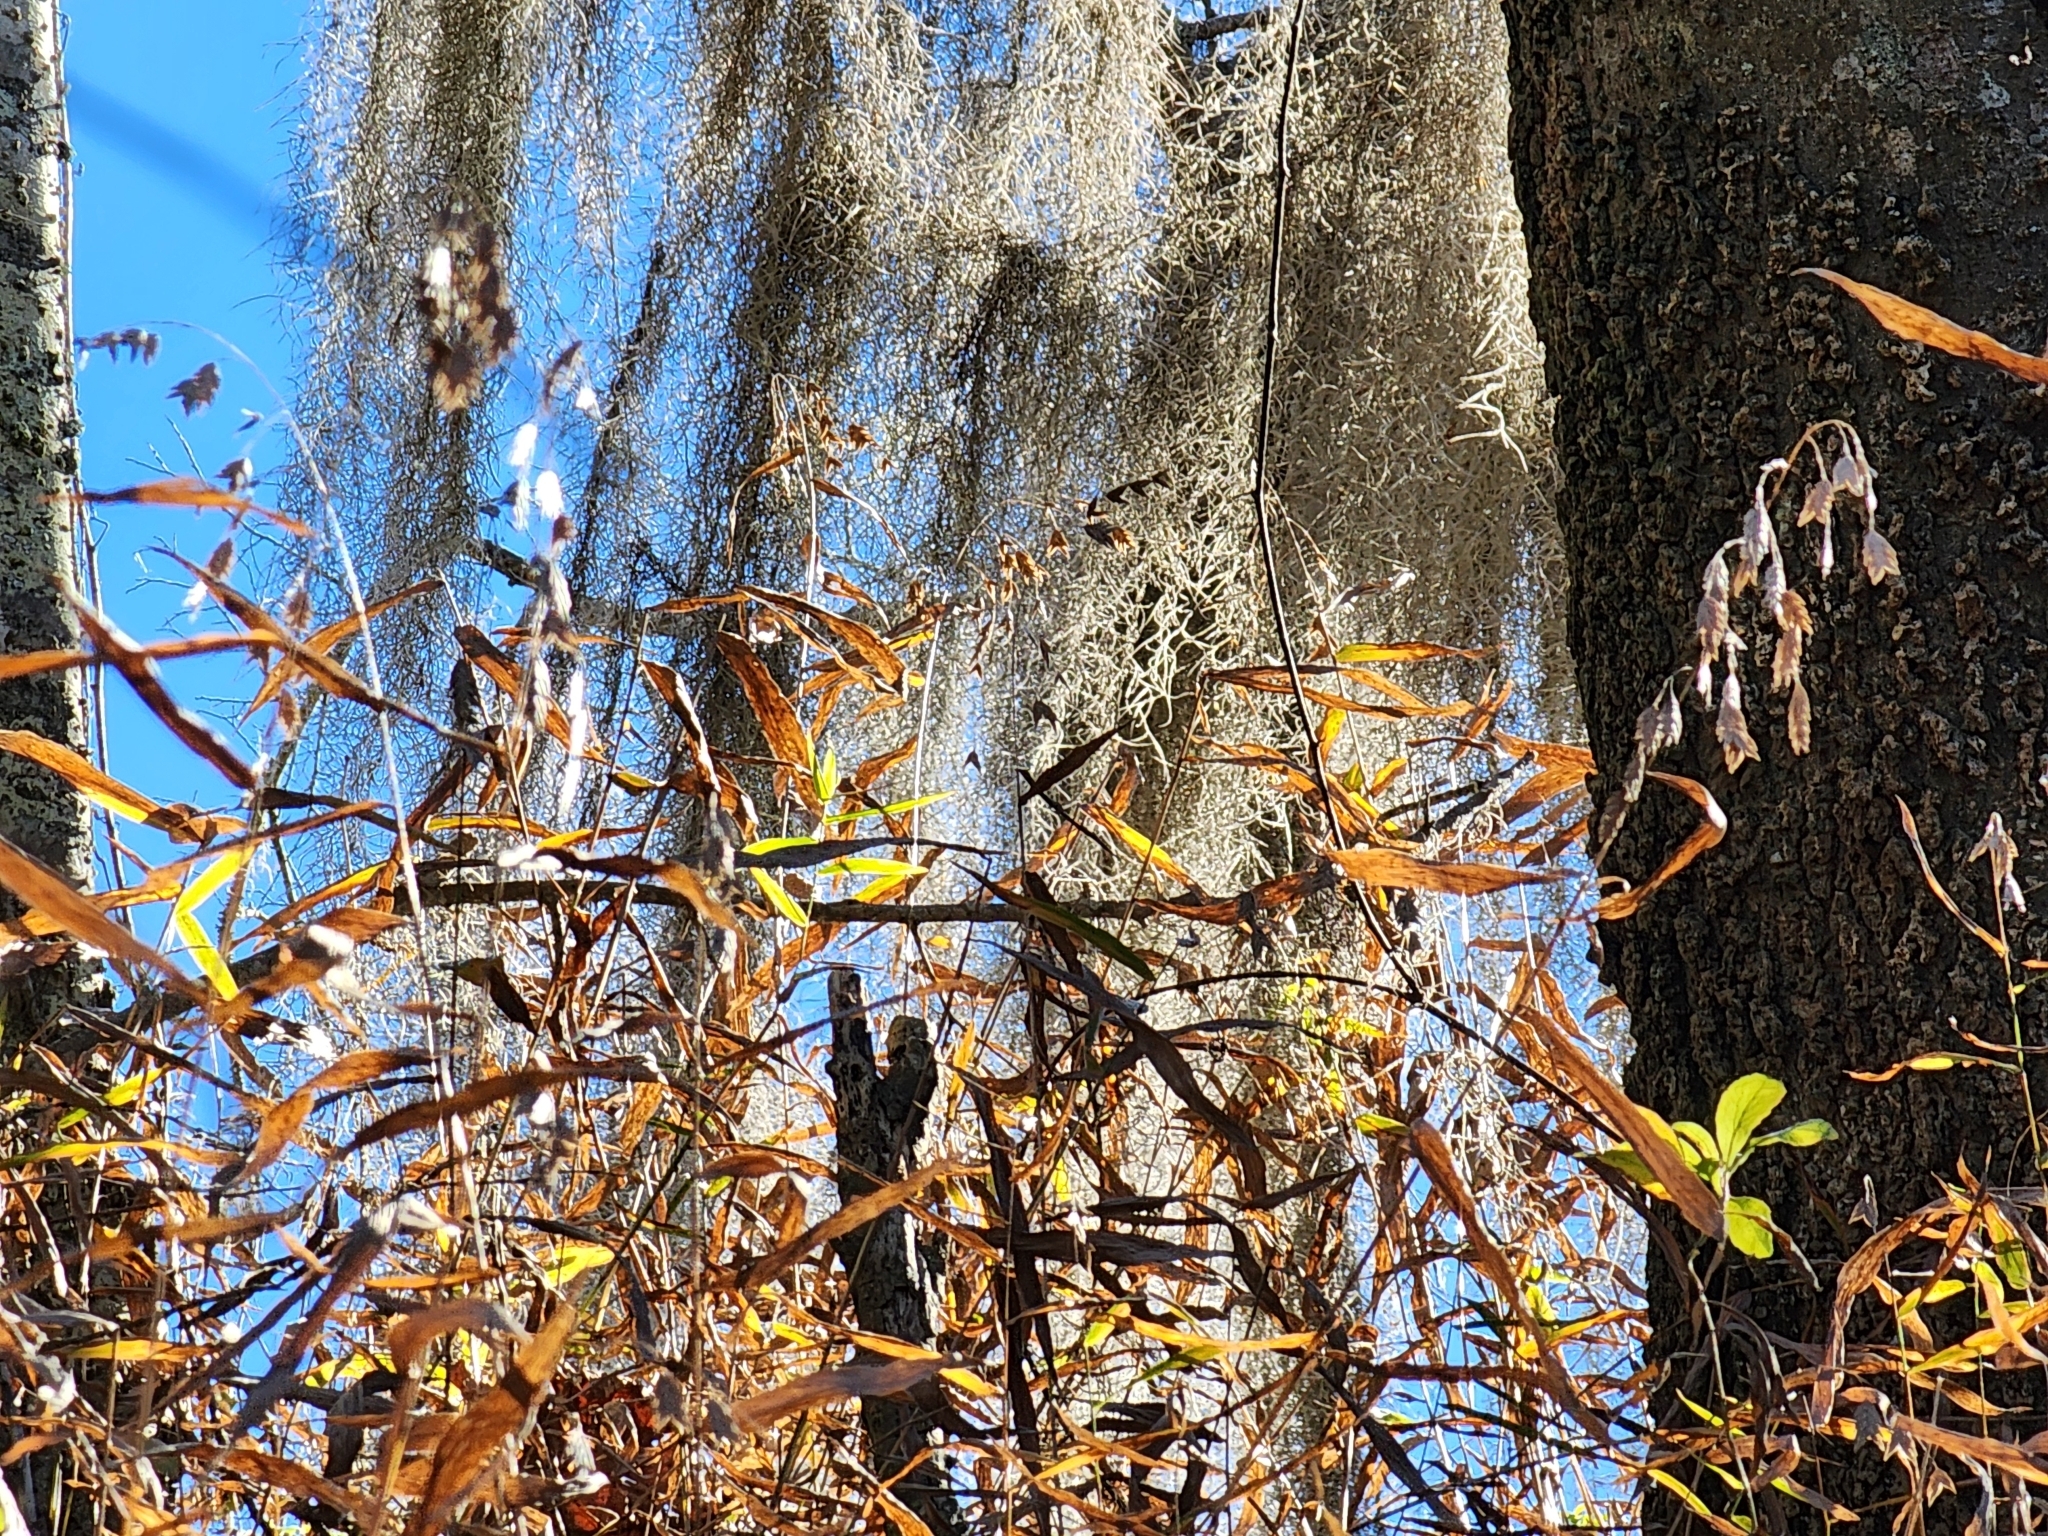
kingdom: Plantae
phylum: Tracheophyta
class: Liliopsida
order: Poales
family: Poaceae
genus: Chasmanthium
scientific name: Chasmanthium latifolium
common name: Broad-leaved chasmanthium
